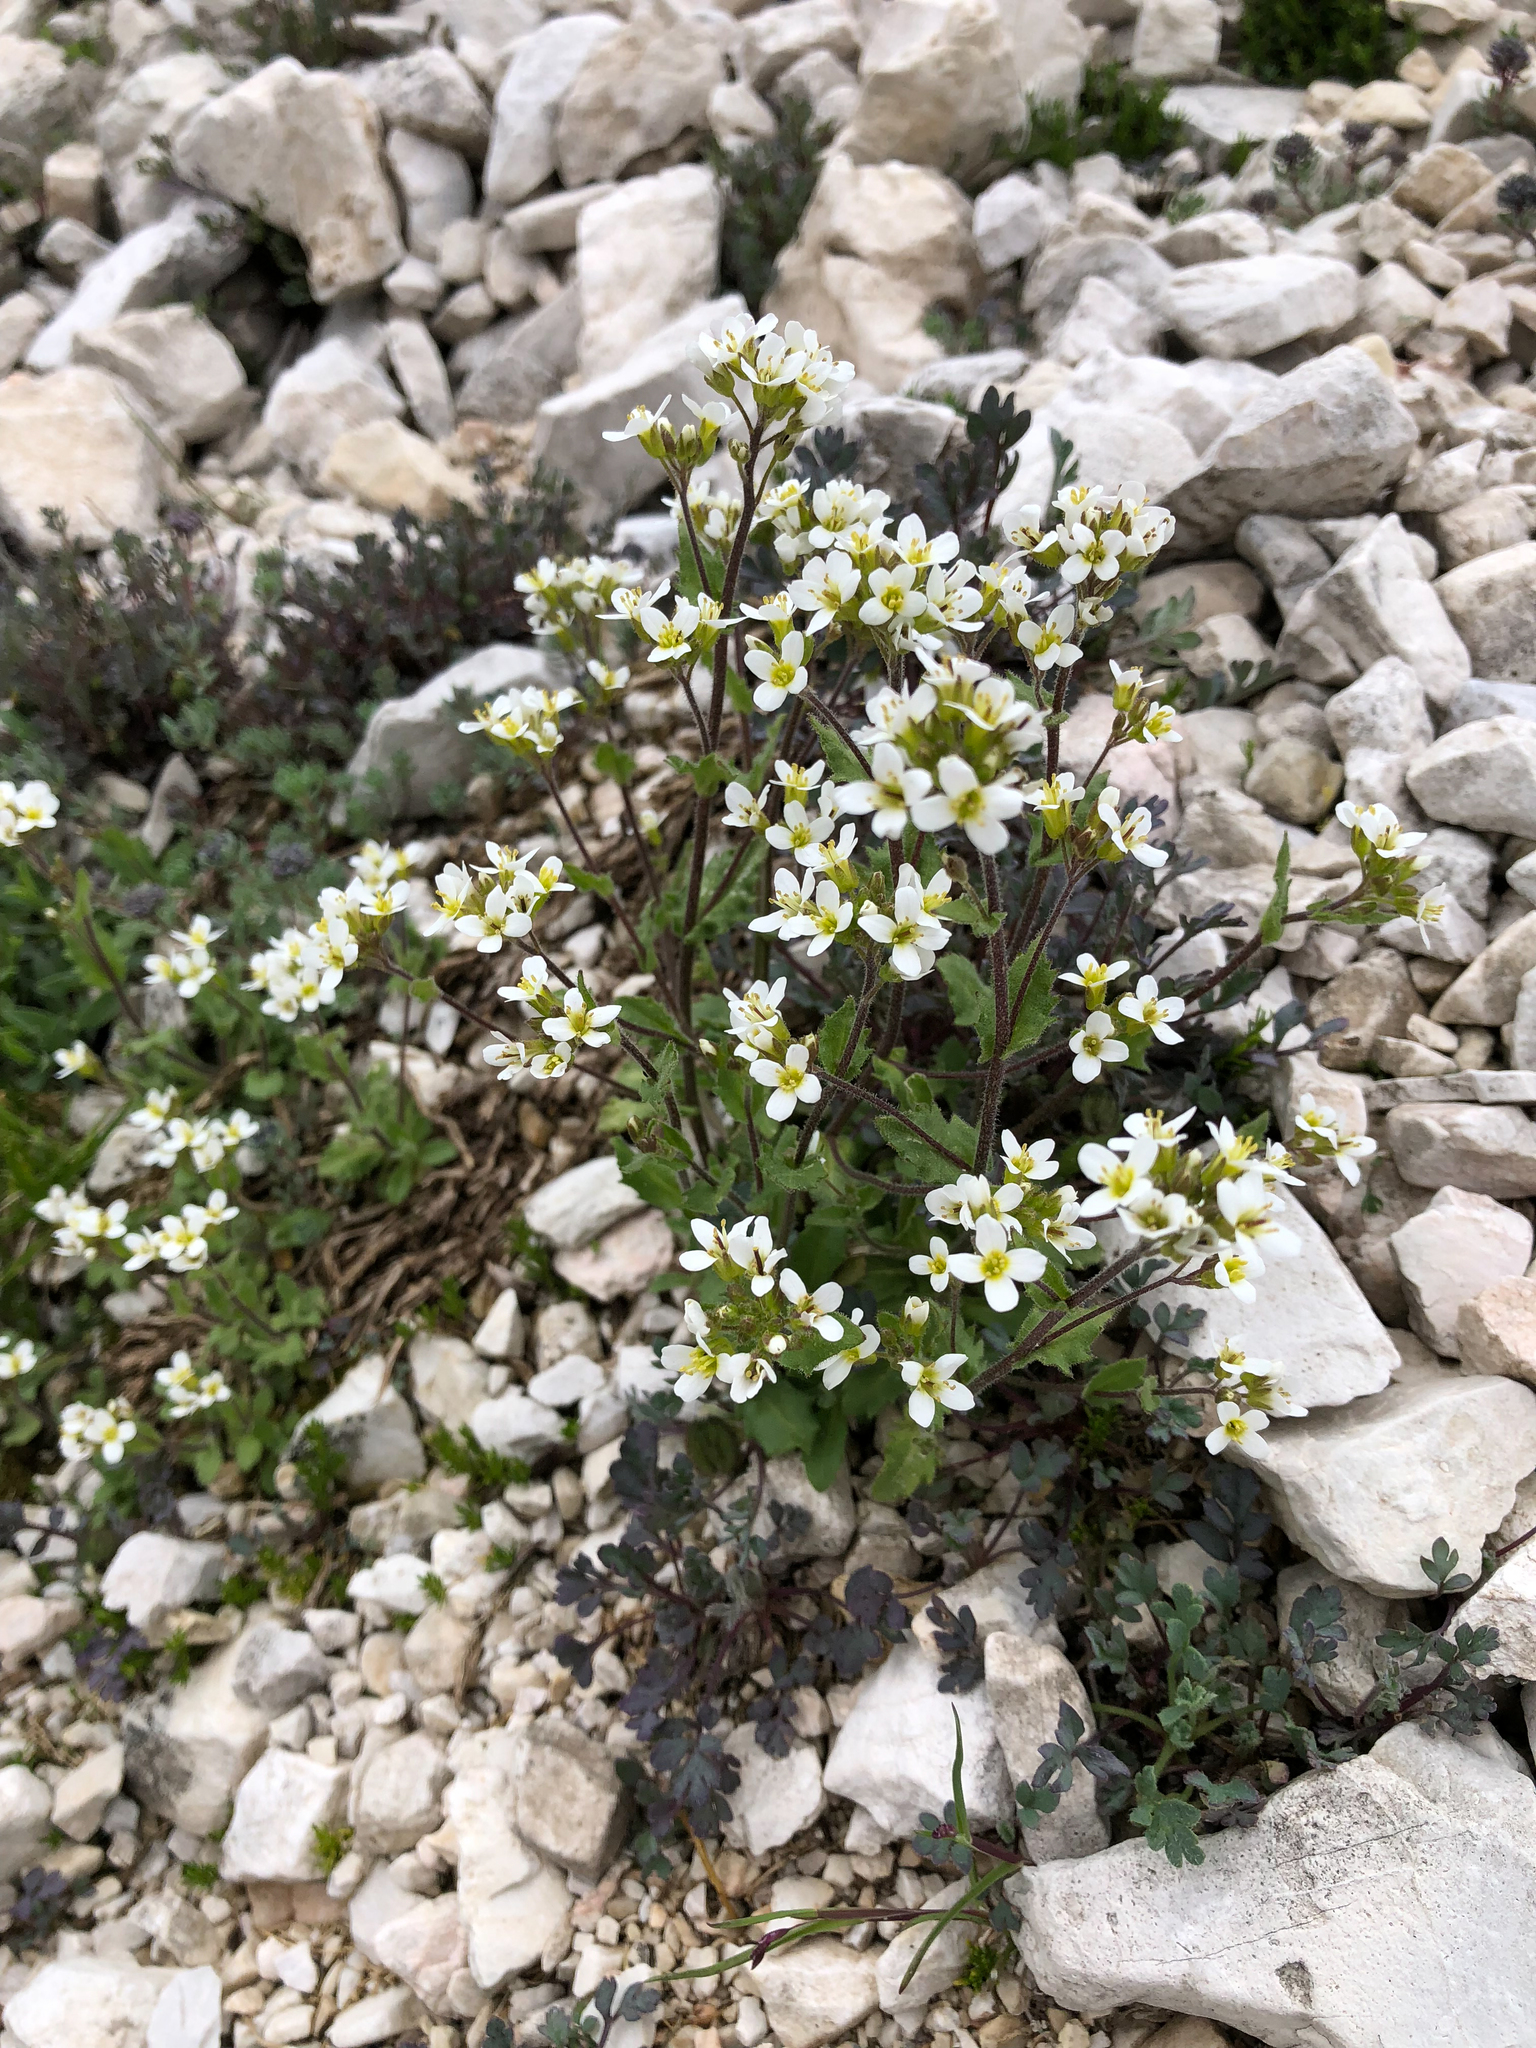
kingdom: Plantae
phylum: Tracheophyta
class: Magnoliopsida
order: Brassicales
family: Brassicaceae
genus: Arabis
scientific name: Arabis alpina
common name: Alpine rock-cress
